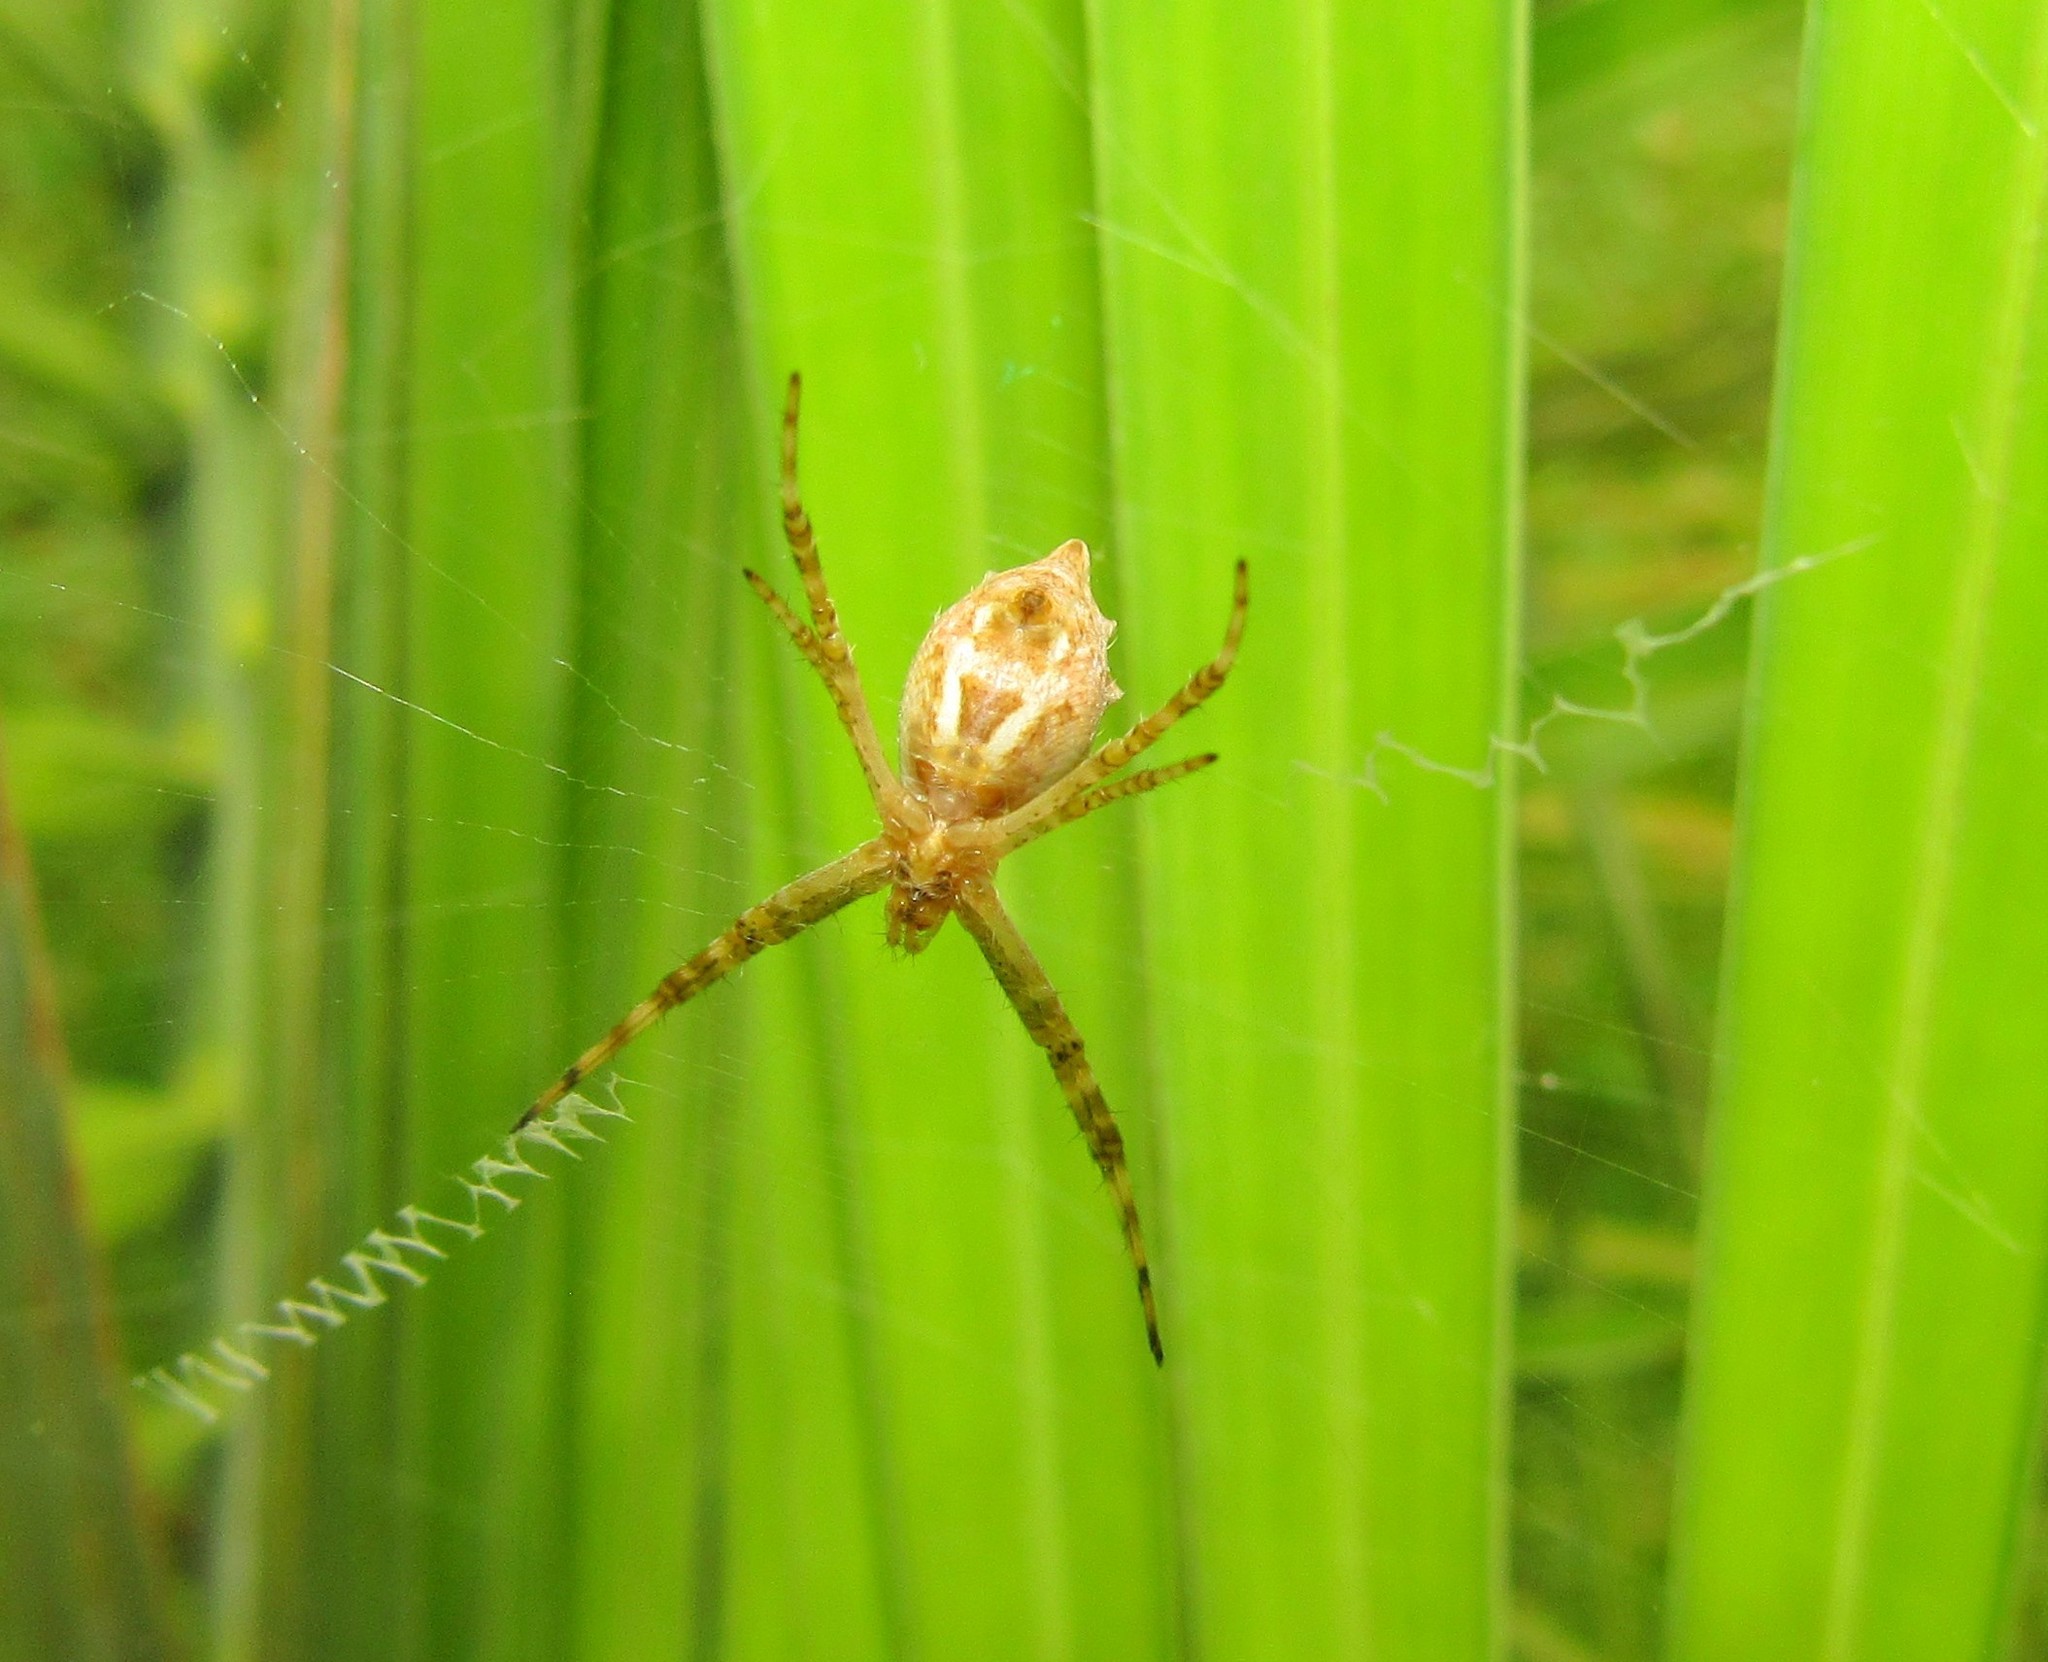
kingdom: Animalia
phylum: Arthropoda
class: Arachnida
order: Araneae
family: Araneidae
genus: Argiope
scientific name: Argiope argentata
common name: Orb weavers
